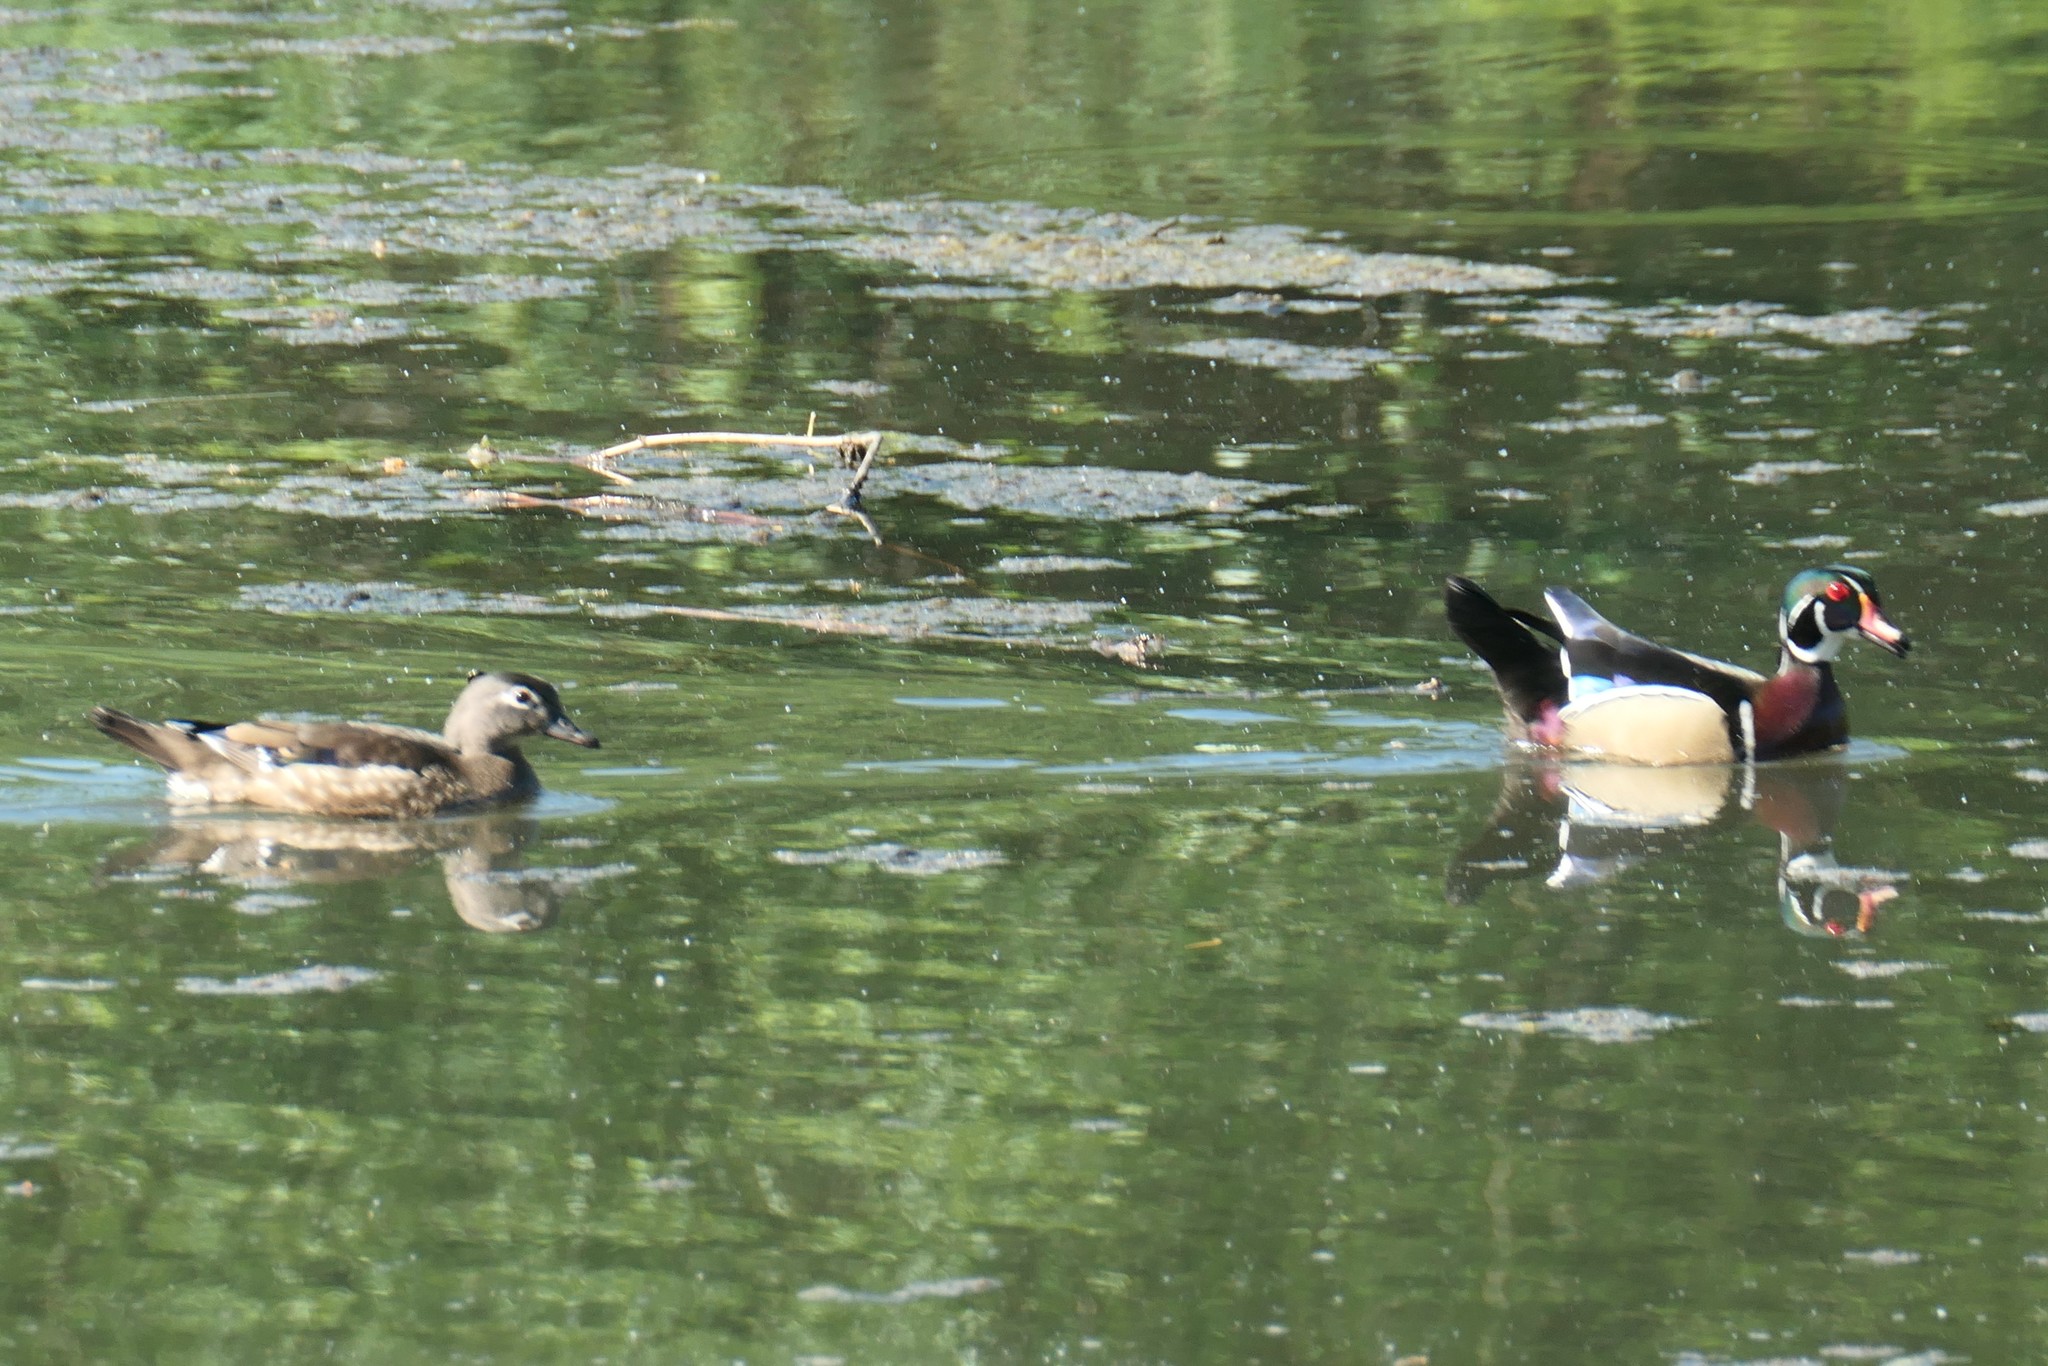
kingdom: Animalia
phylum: Chordata
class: Aves
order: Anseriformes
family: Anatidae
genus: Aix
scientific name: Aix sponsa
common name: Wood duck
